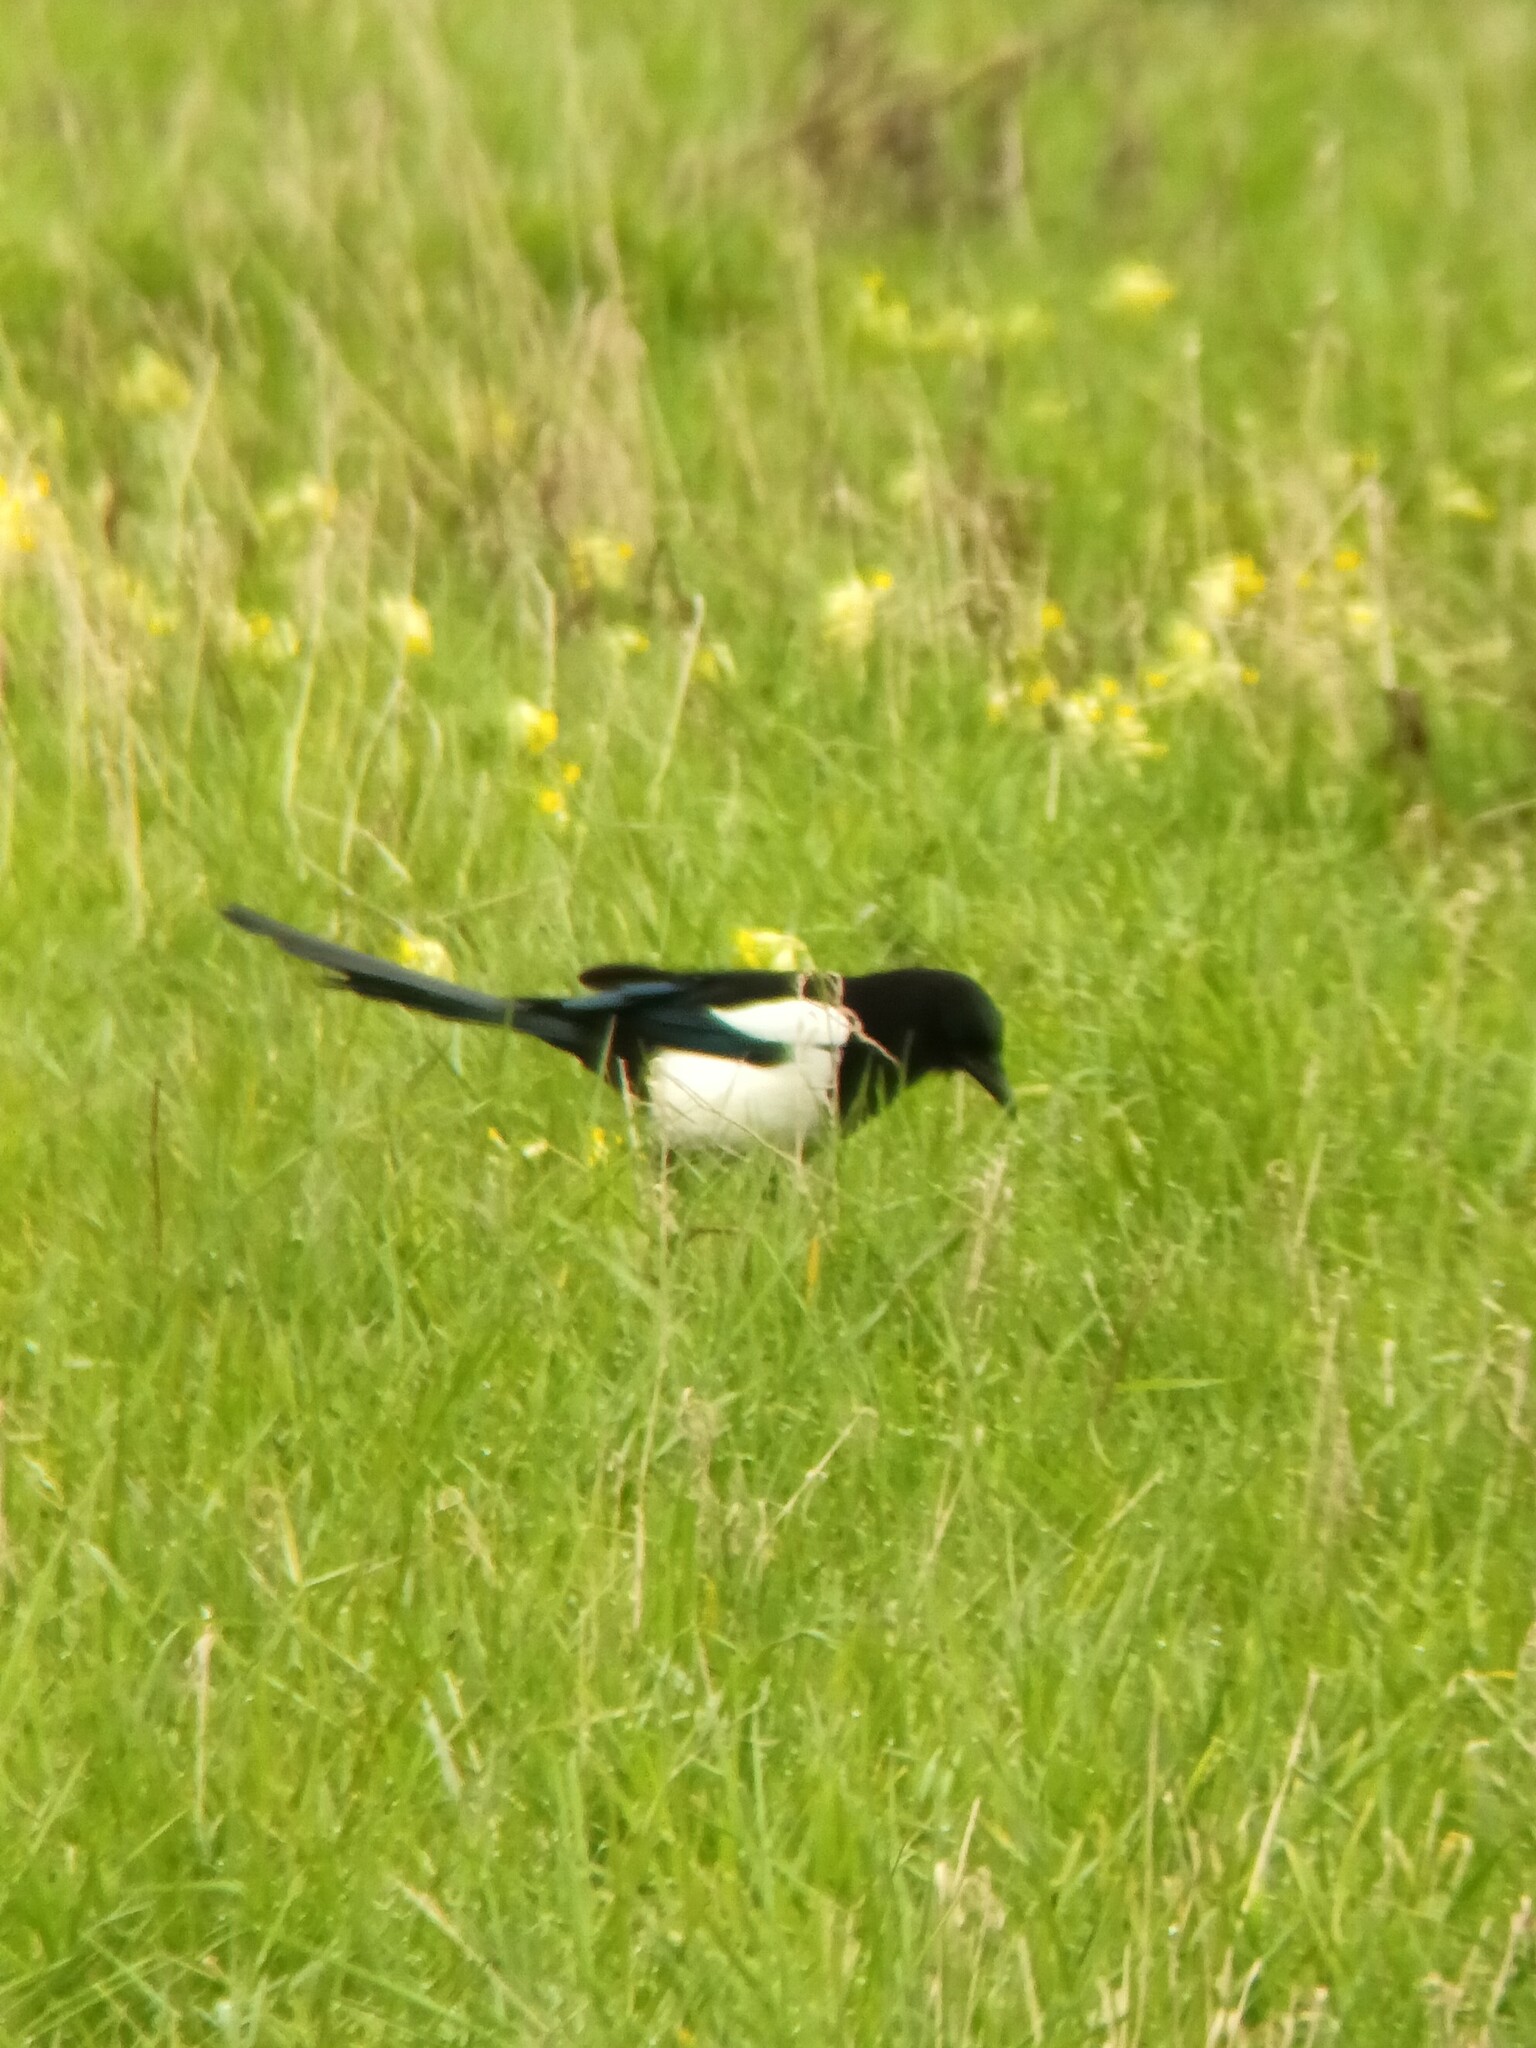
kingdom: Animalia
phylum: Chordata
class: Aves
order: Passeriformes
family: Corvidae
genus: Pica
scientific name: Pica pica
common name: Eurasian magpie
